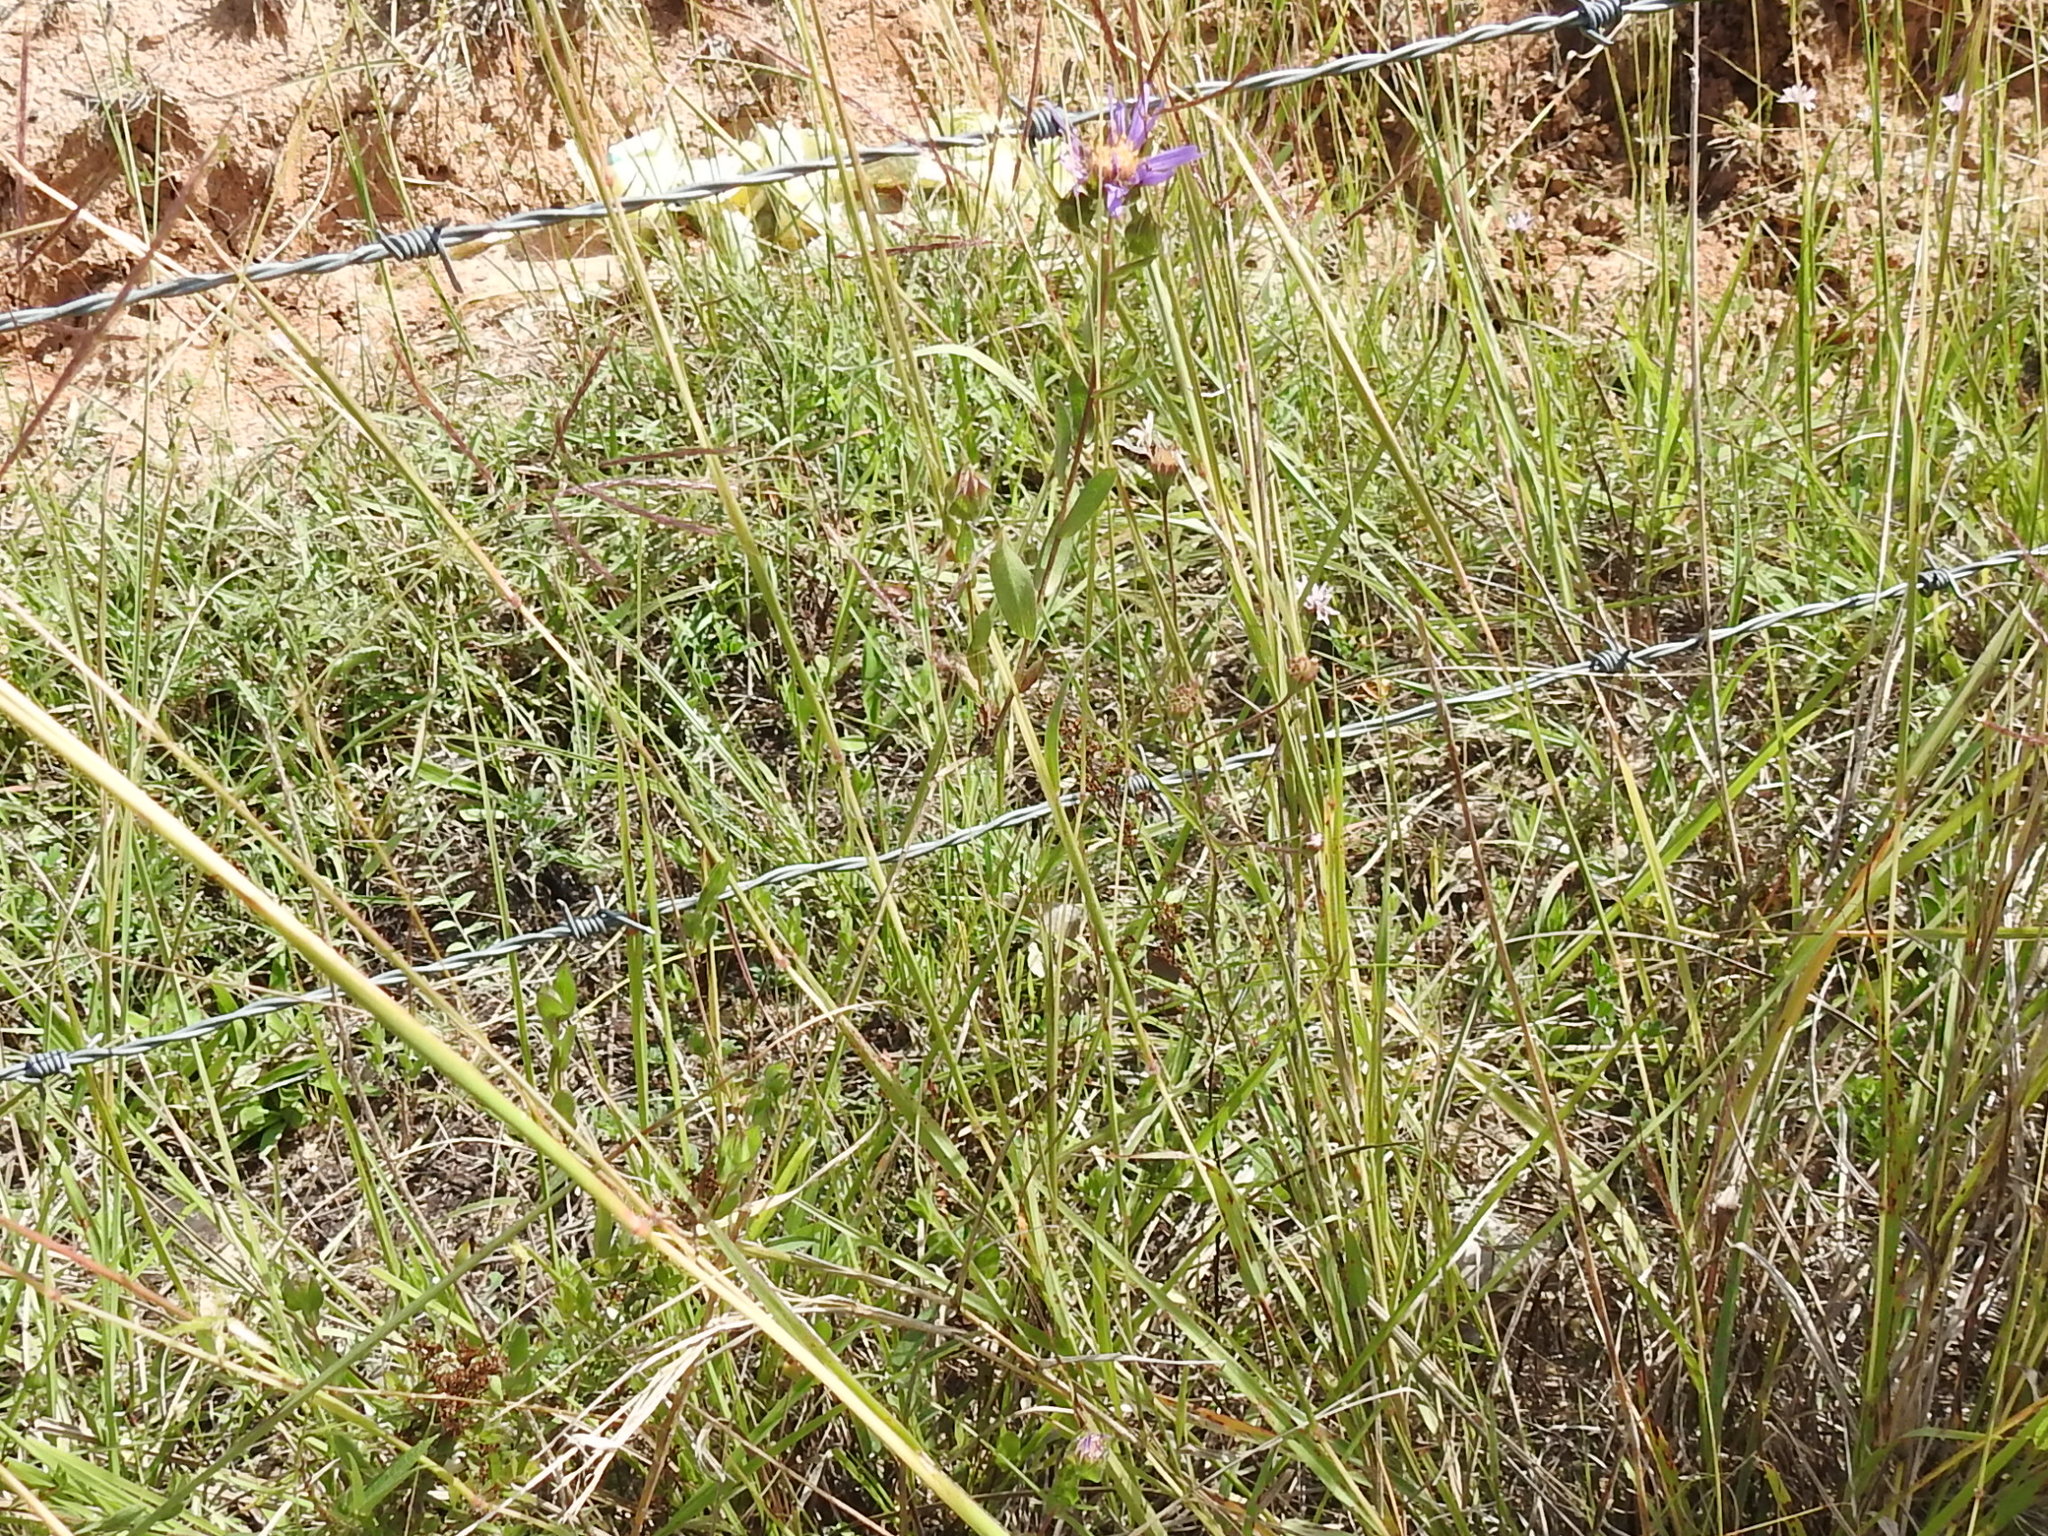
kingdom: Plantae
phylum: Tracheophyta
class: Magnoliopsida
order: Asterales
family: Asteraceae
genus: Symphyotrichum
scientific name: Symphyotrichum pratense
